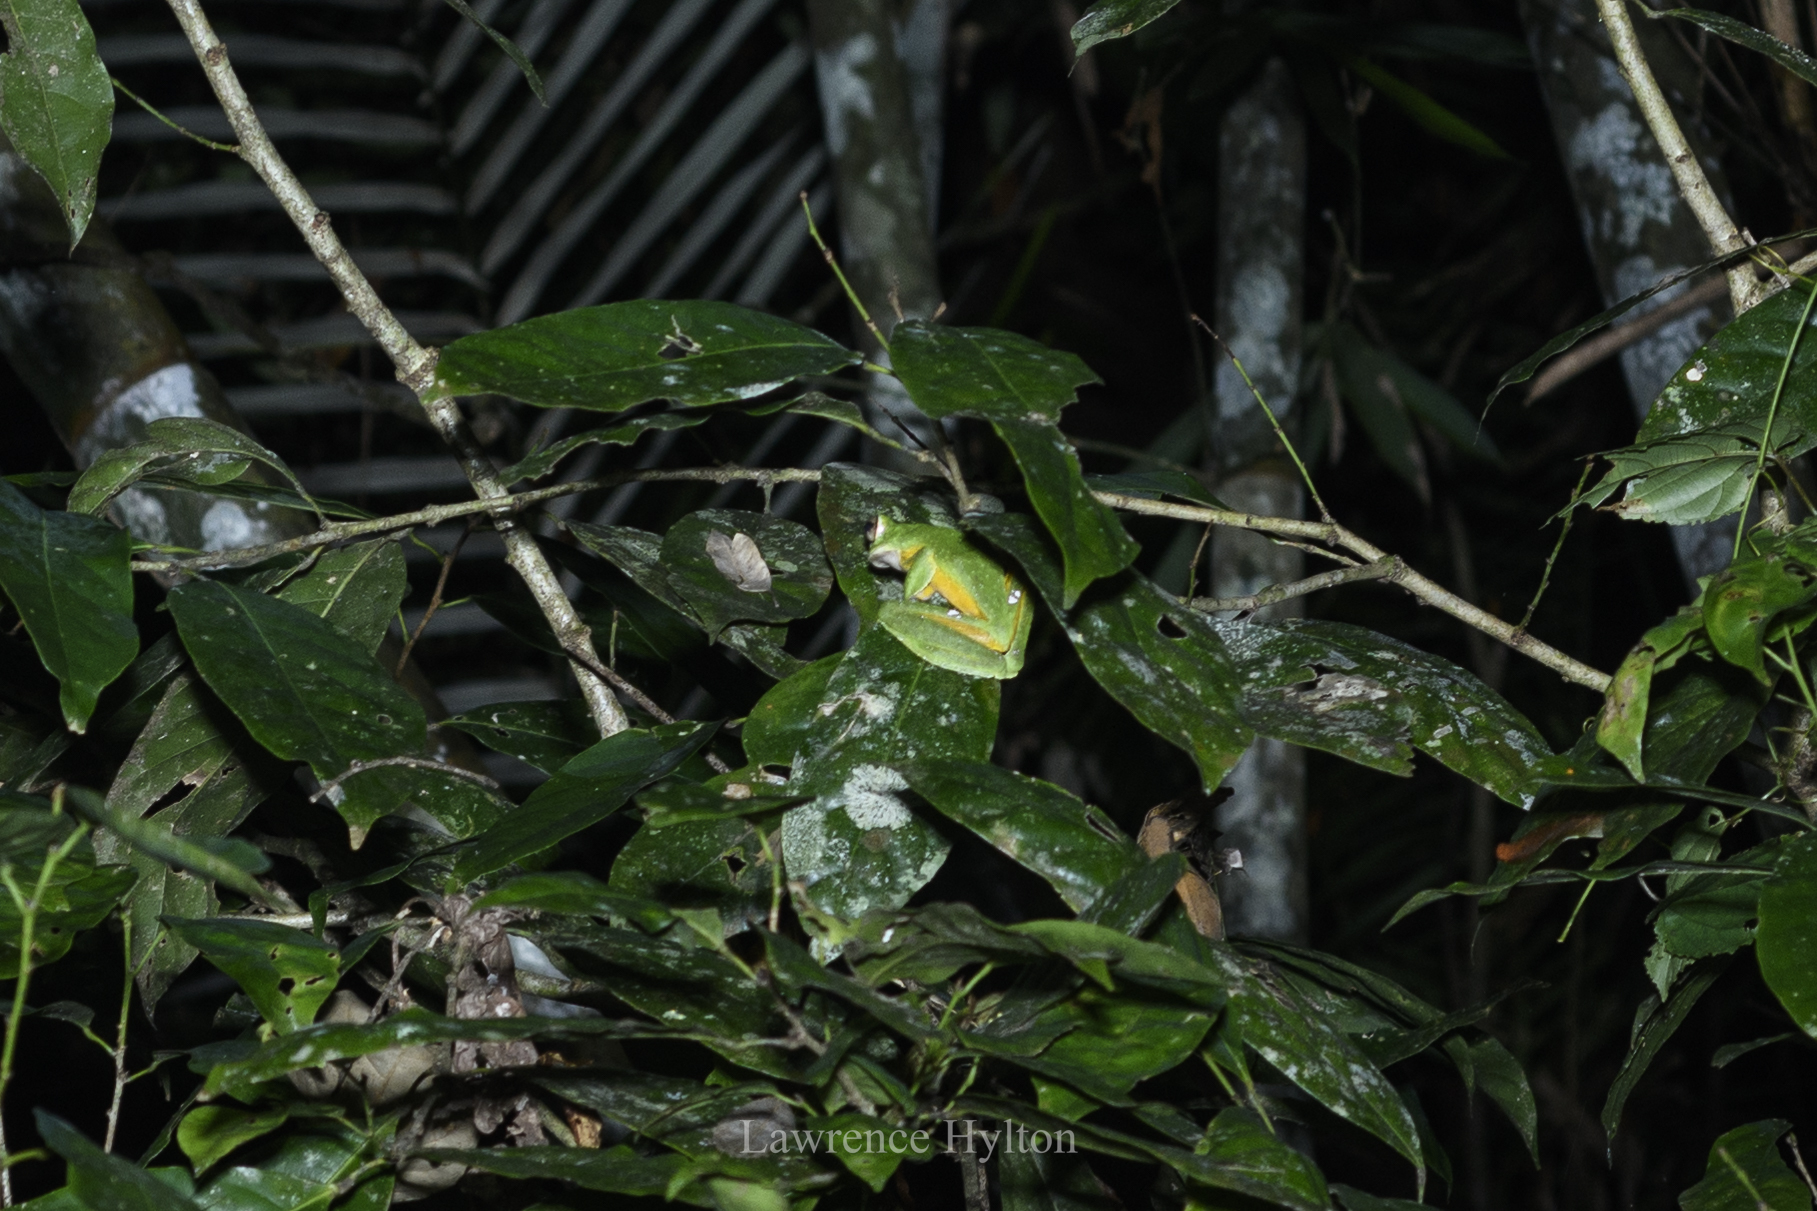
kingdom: Animalia
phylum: Chordata
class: Amphibia
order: Anura
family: Rhacophoridae
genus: Rhacophorus
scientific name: Rhacophorus nigropalmatus
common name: Wallace’s flying frog
